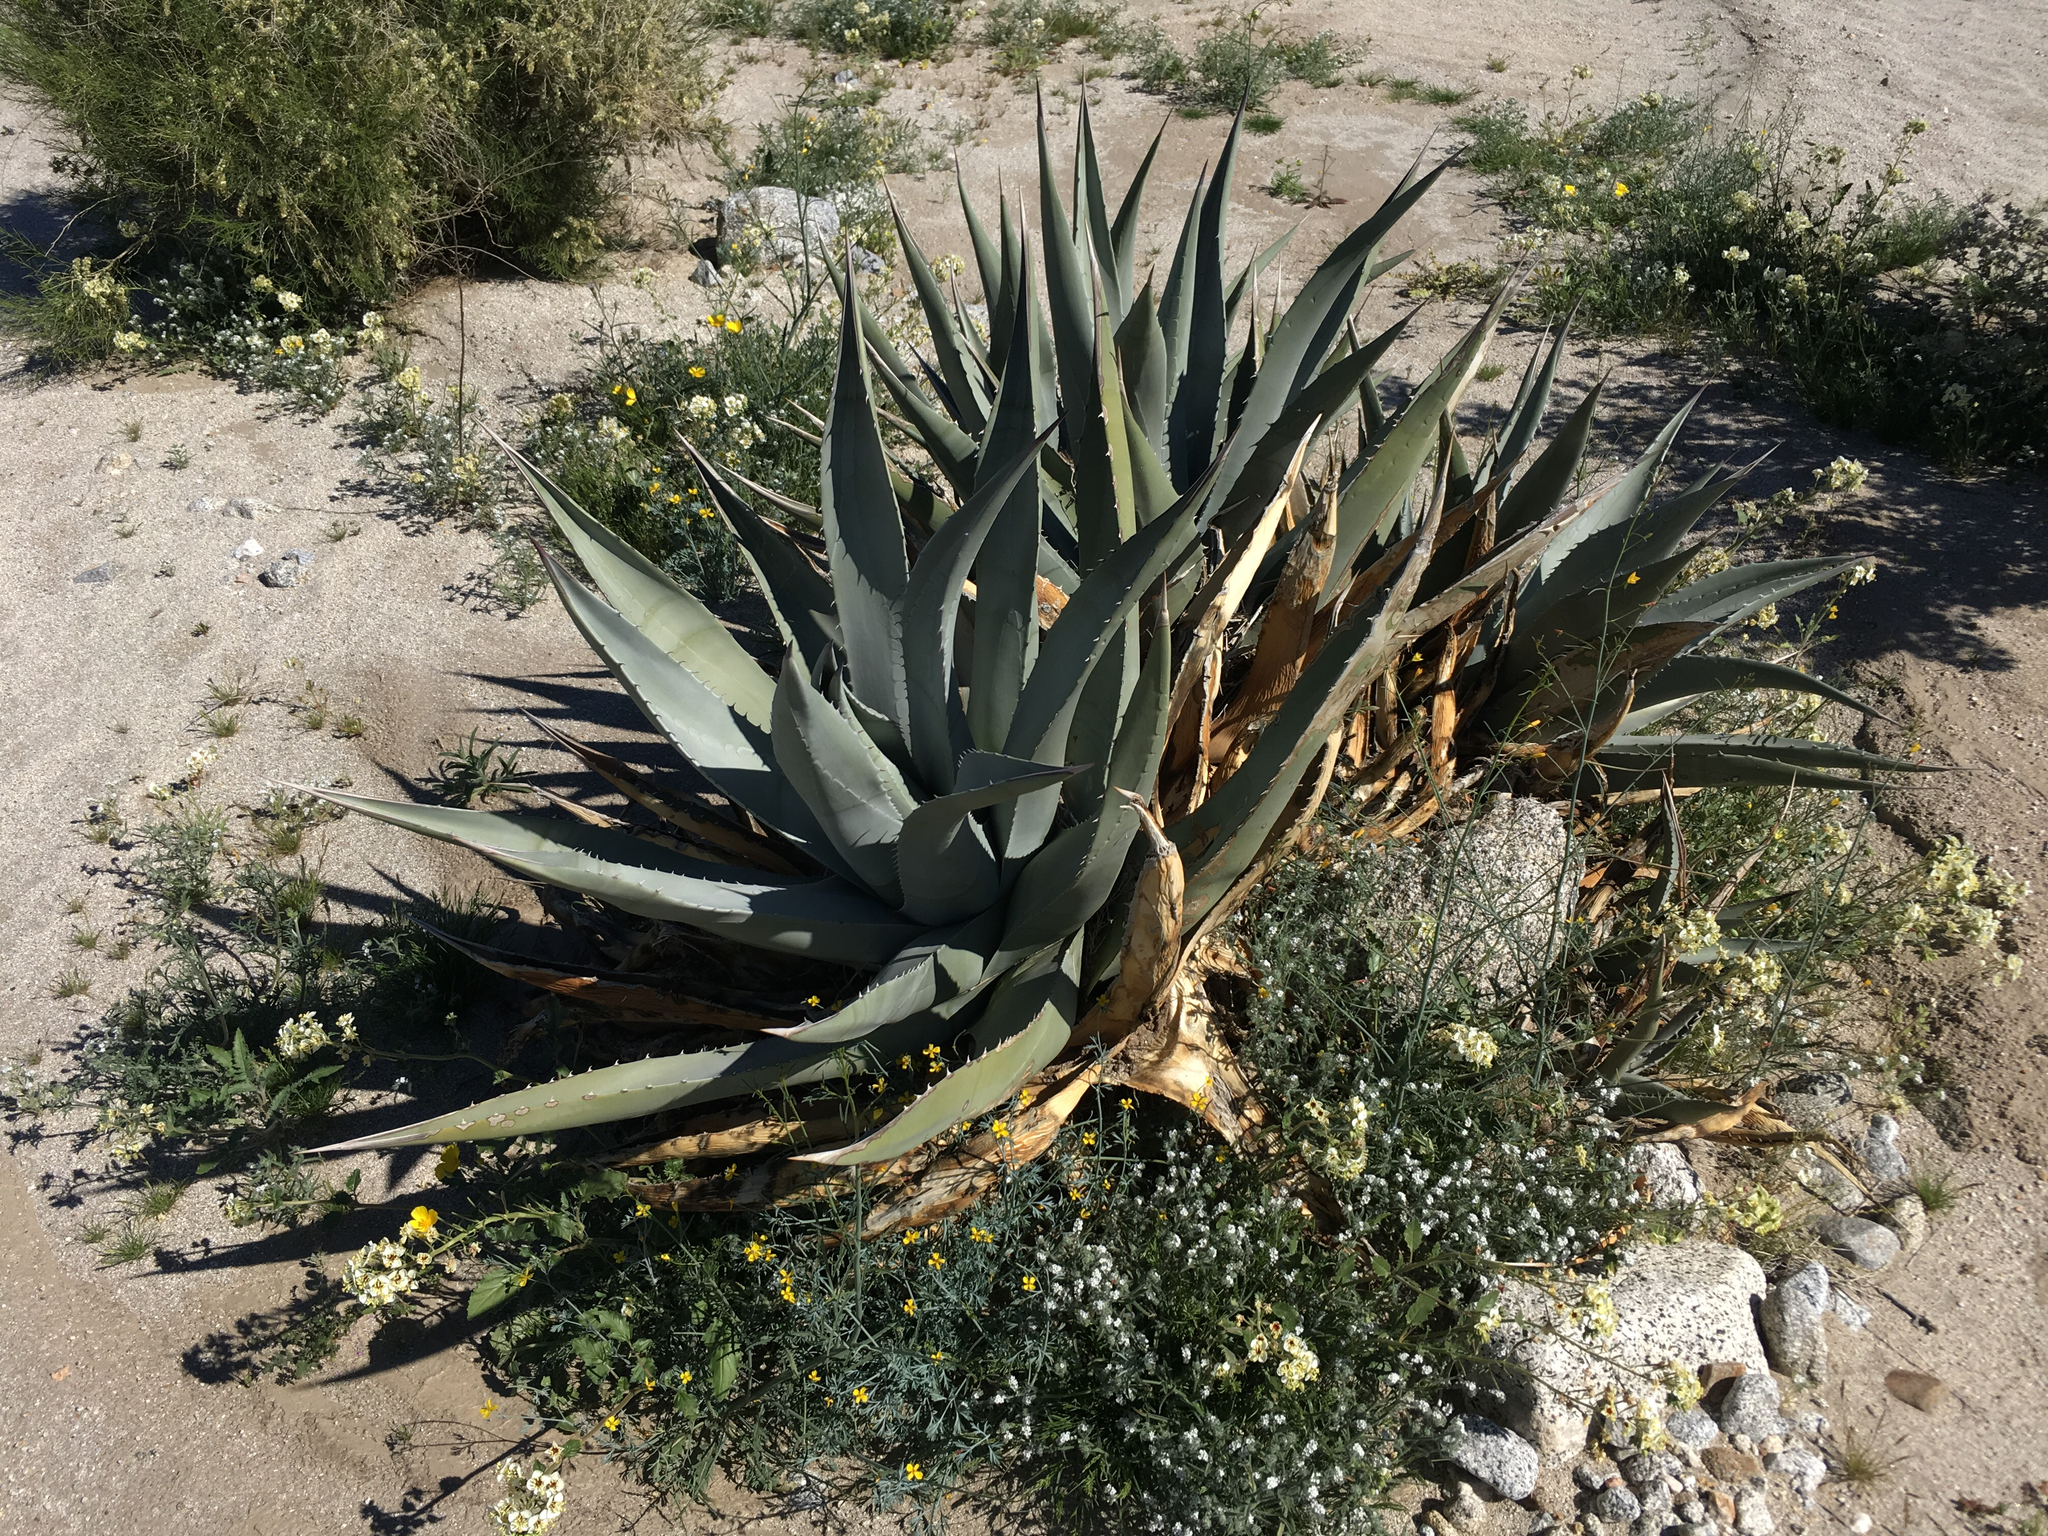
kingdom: Plantae
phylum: Tracheophyta
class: Liliopsida
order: Asparagales
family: Asparagaceae
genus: Agave
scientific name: Agave deserti
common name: Desert agave
